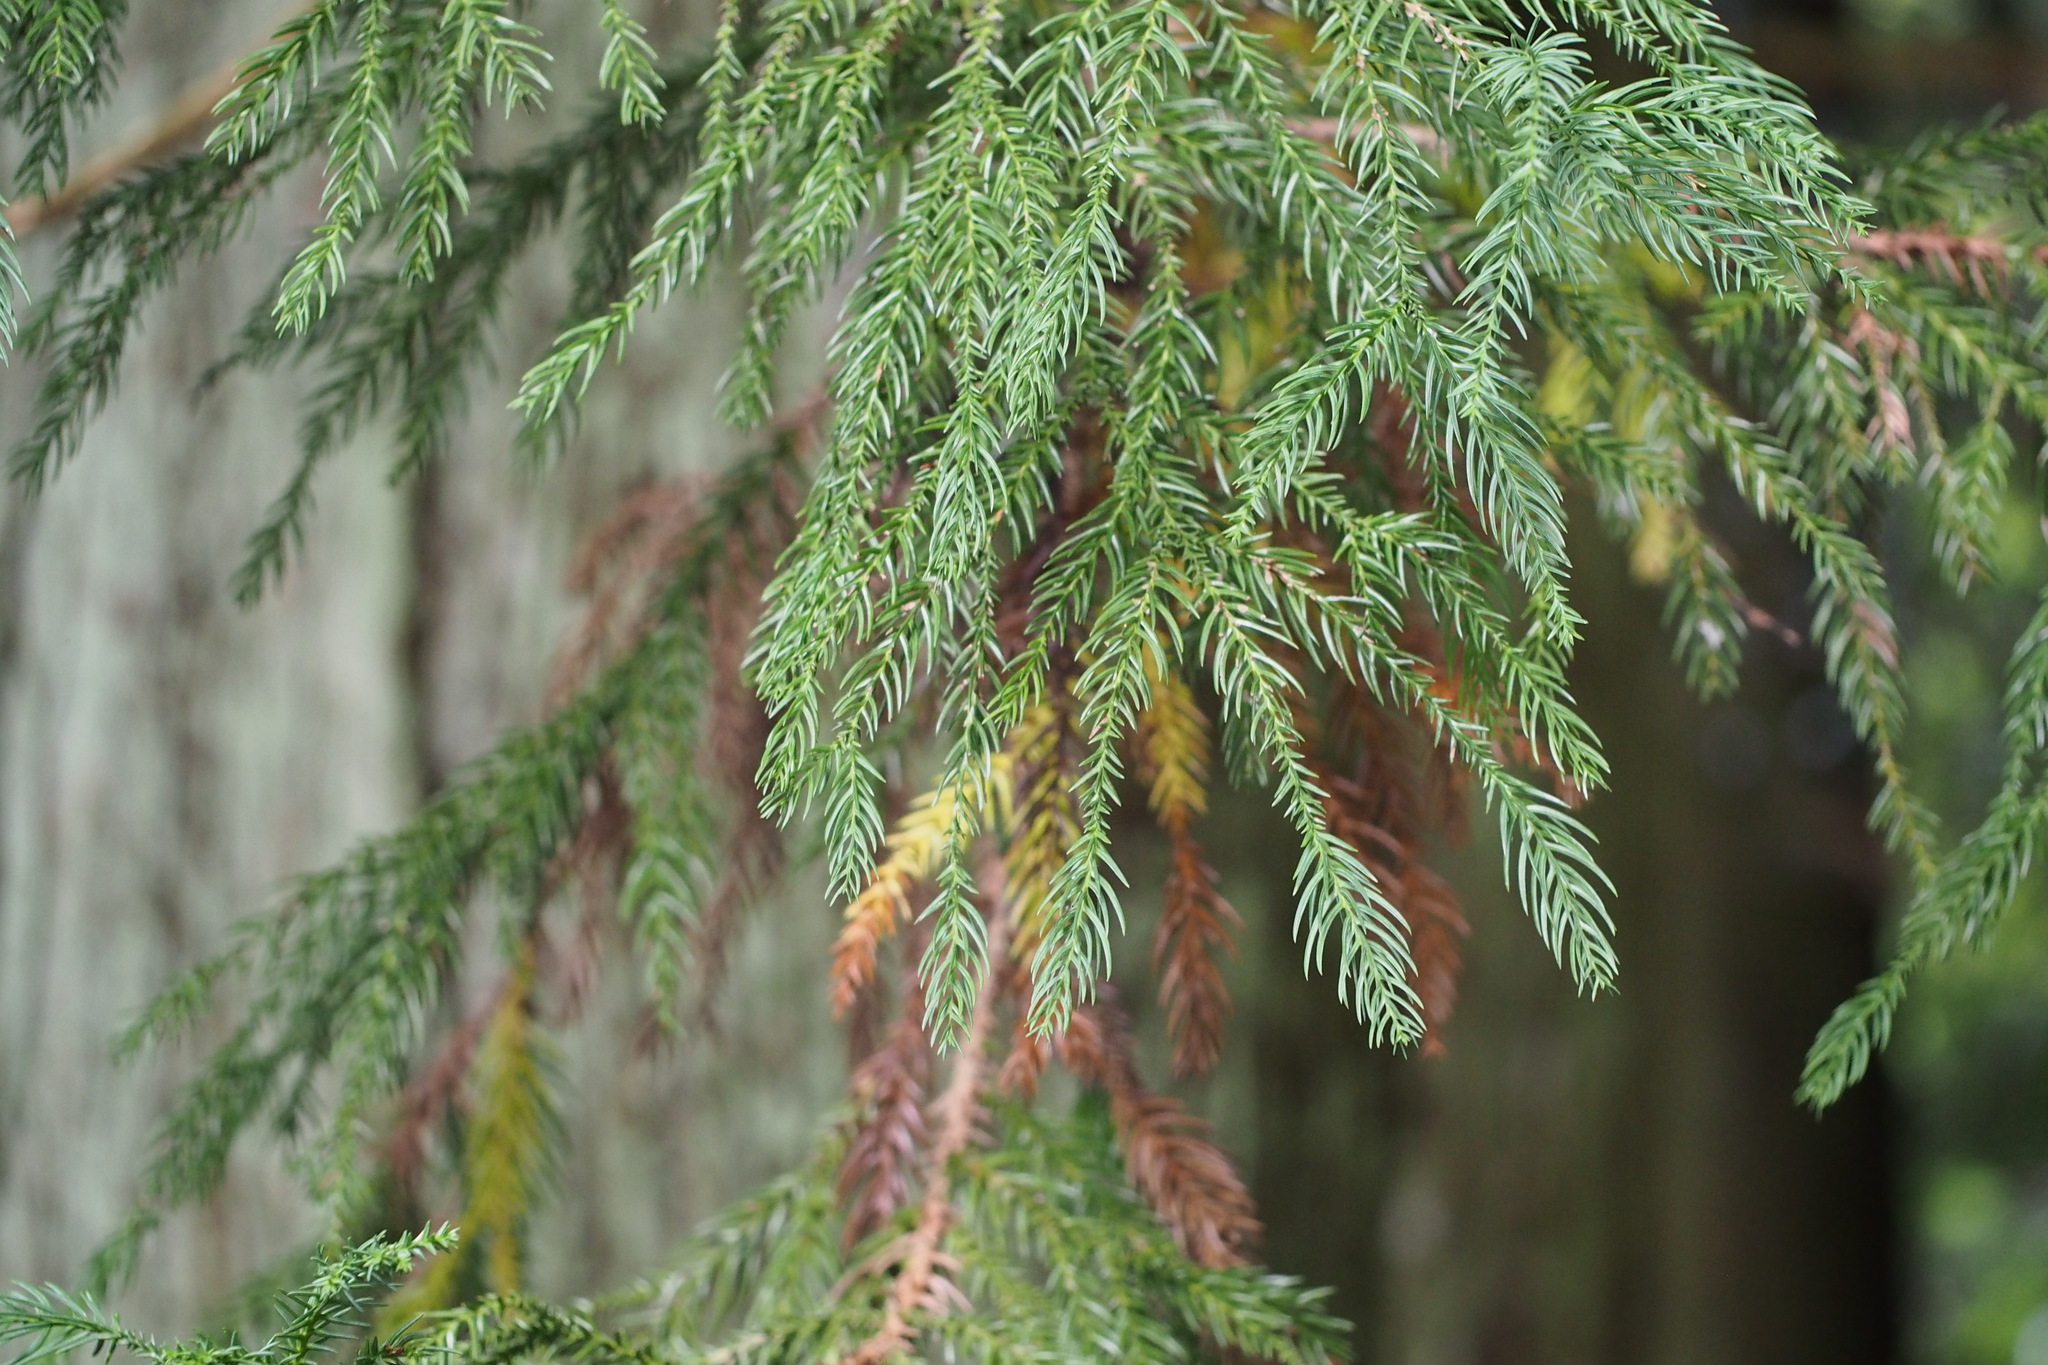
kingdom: Plantae
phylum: Tracheophyta
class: Pinopsida
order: Pinales
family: Cupressaceae
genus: Cryptomeria
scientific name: Cryptomeria japonica
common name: Japanese cedar
